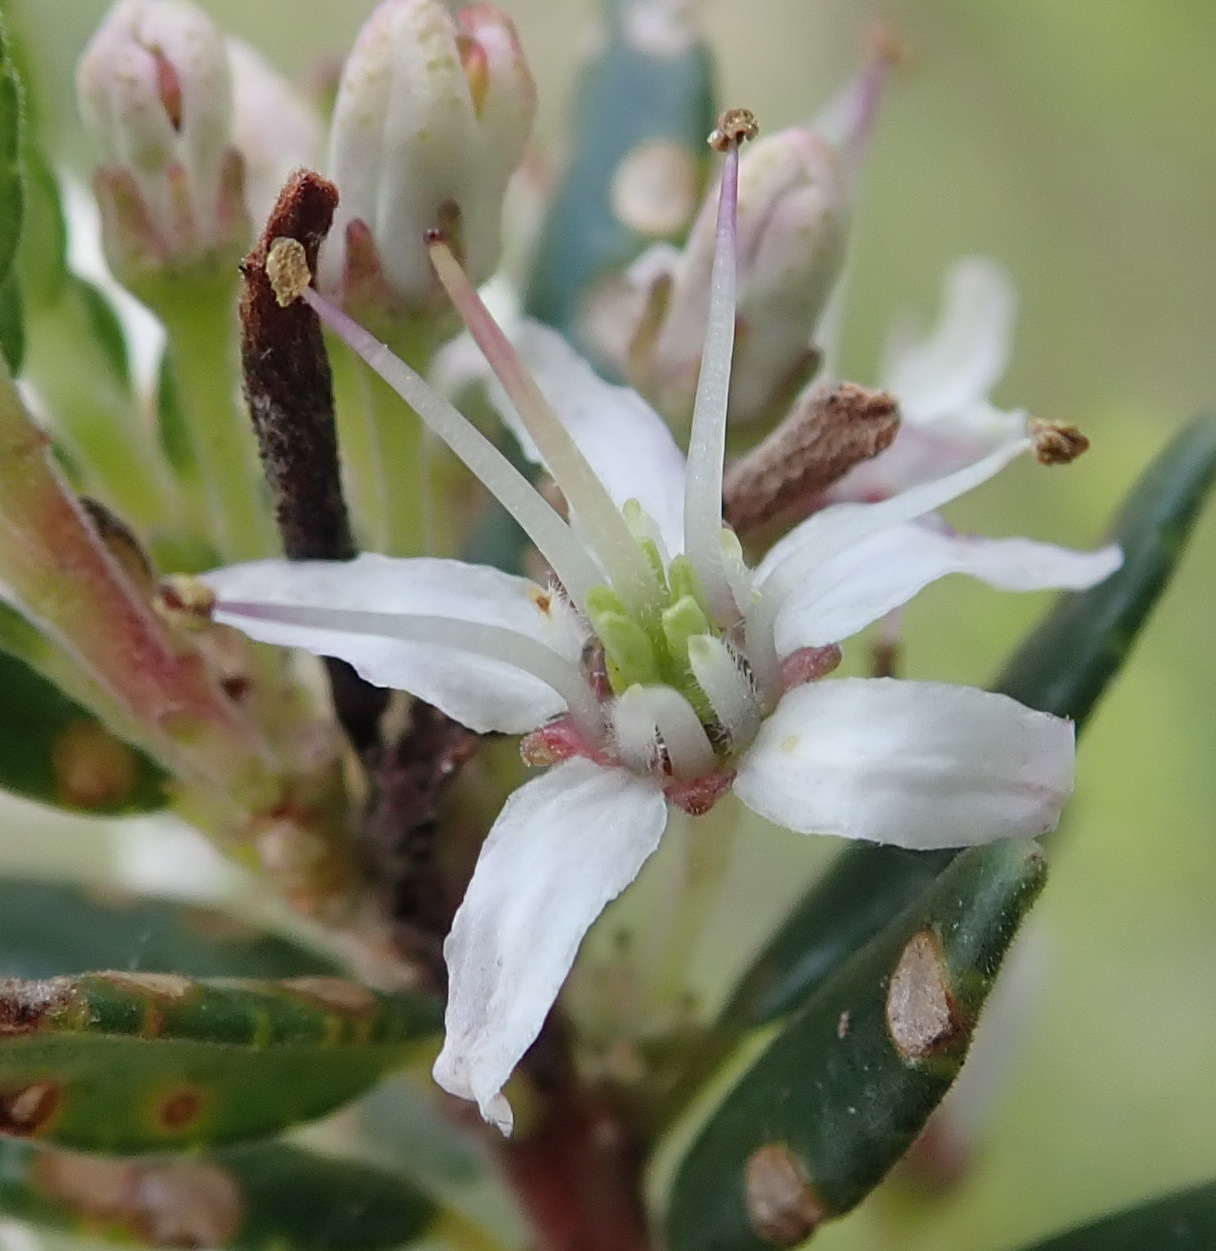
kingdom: Plantae
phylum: Tracheophyta
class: Magnoliopsida
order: Sapindales
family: Rutaceae
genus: Agathosma
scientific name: Agathosma planifolia
